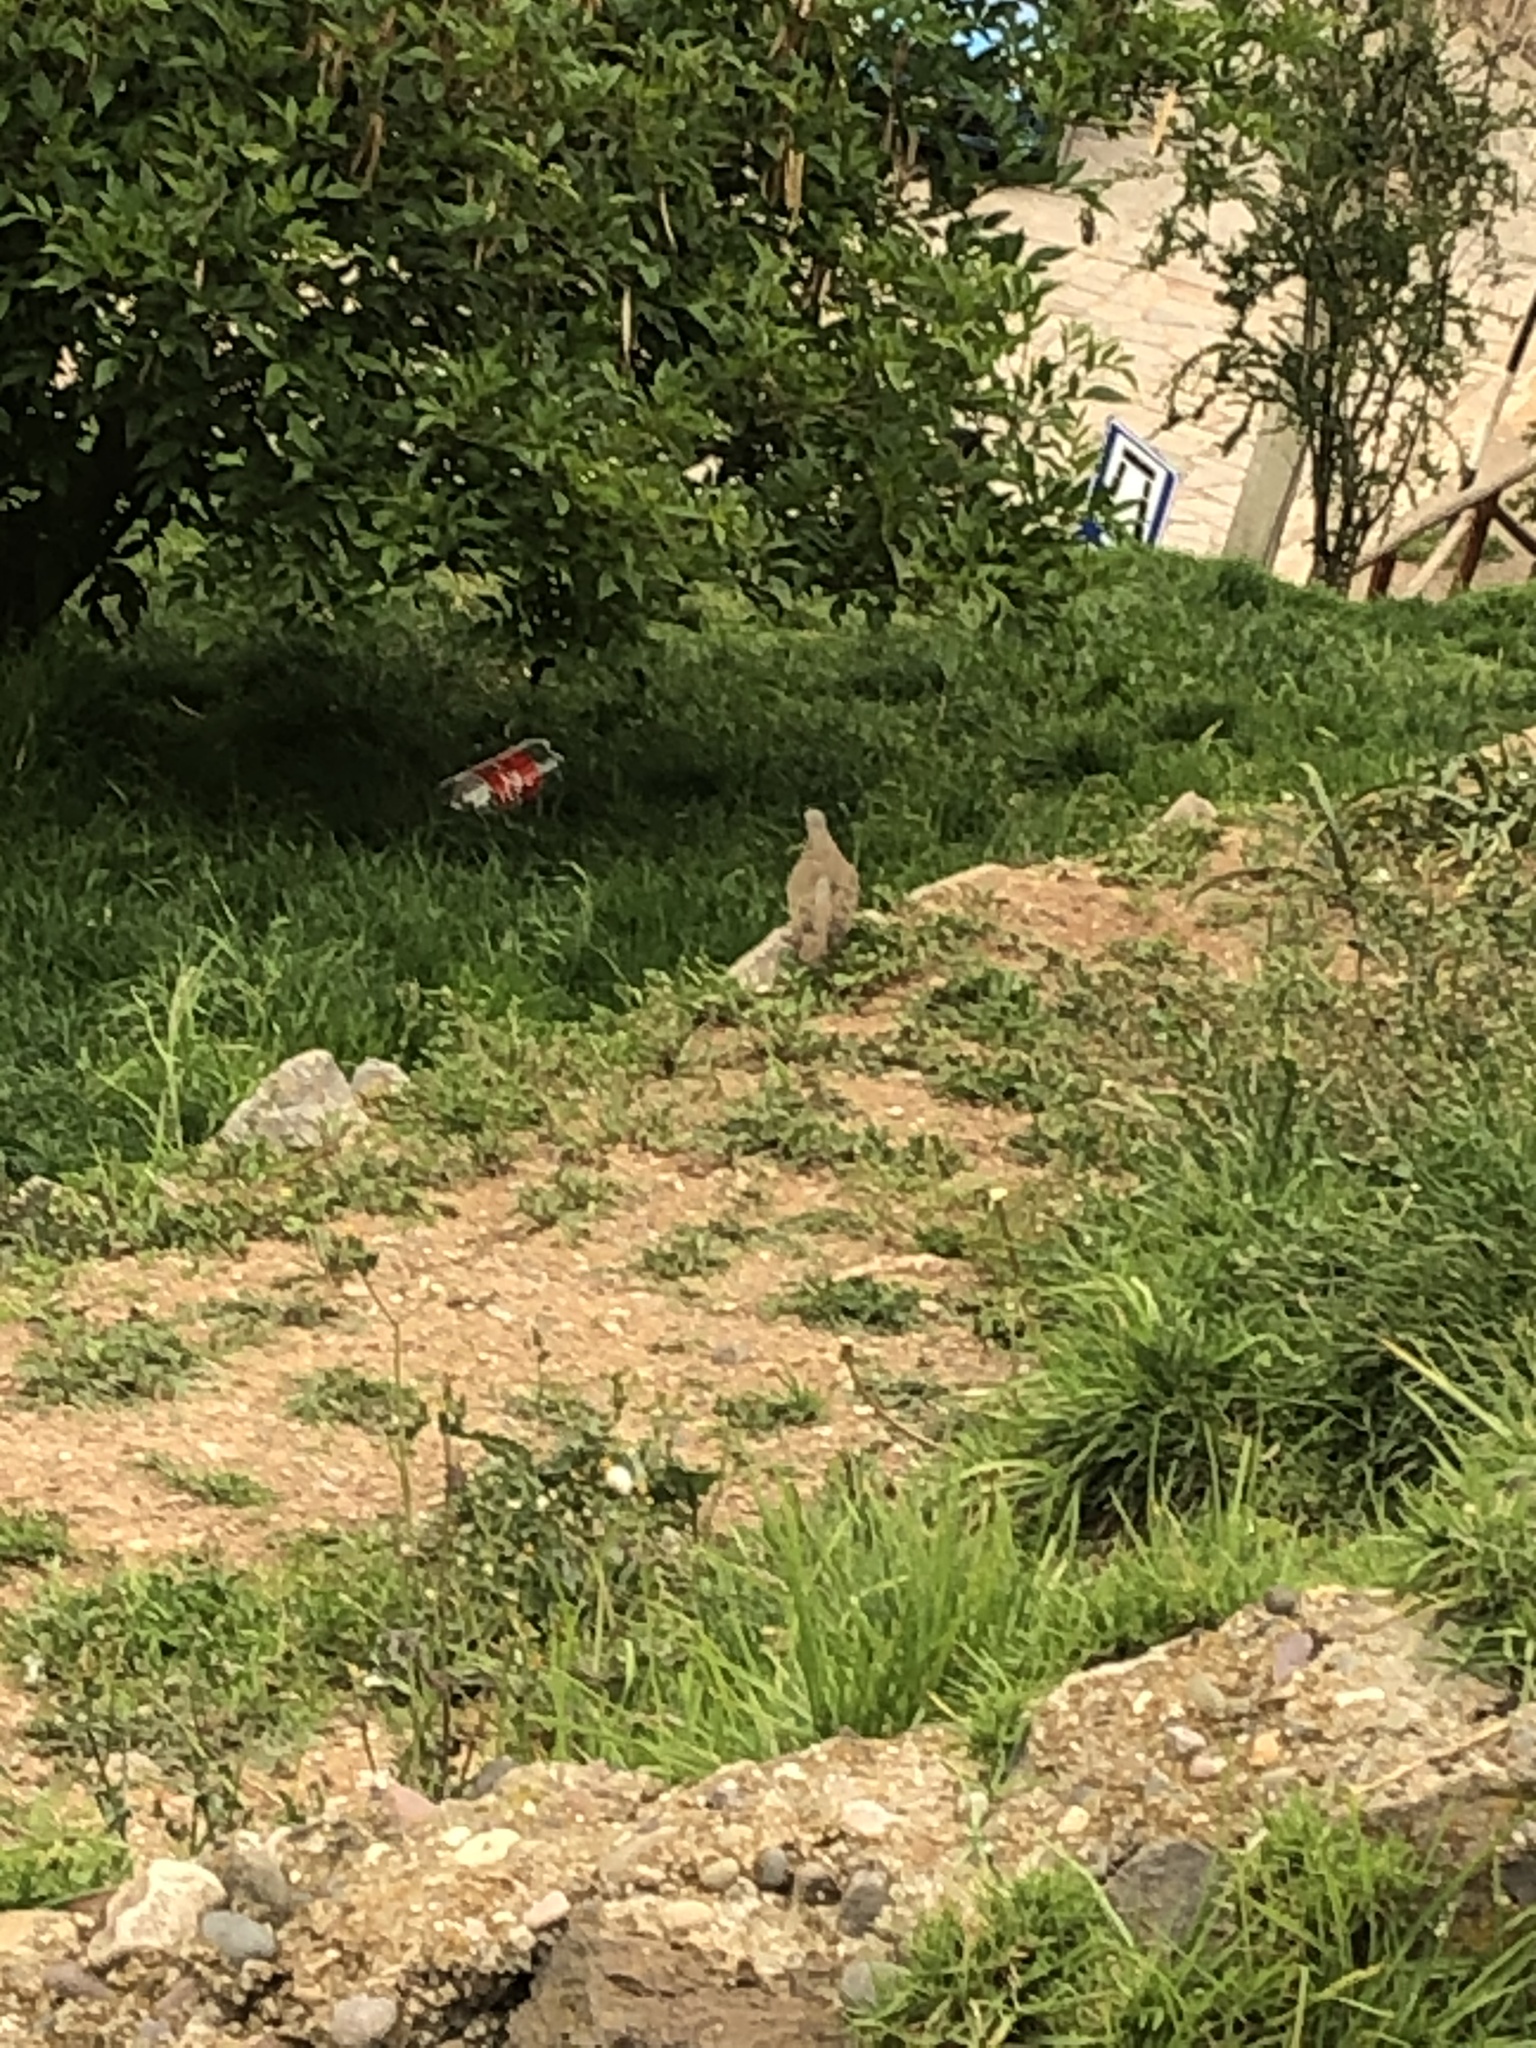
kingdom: Animalia
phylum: Chordata
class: Aves
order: Columbiformes
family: Columbidae
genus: Zenaida
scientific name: Zenaida auriculata
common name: Eared dove
